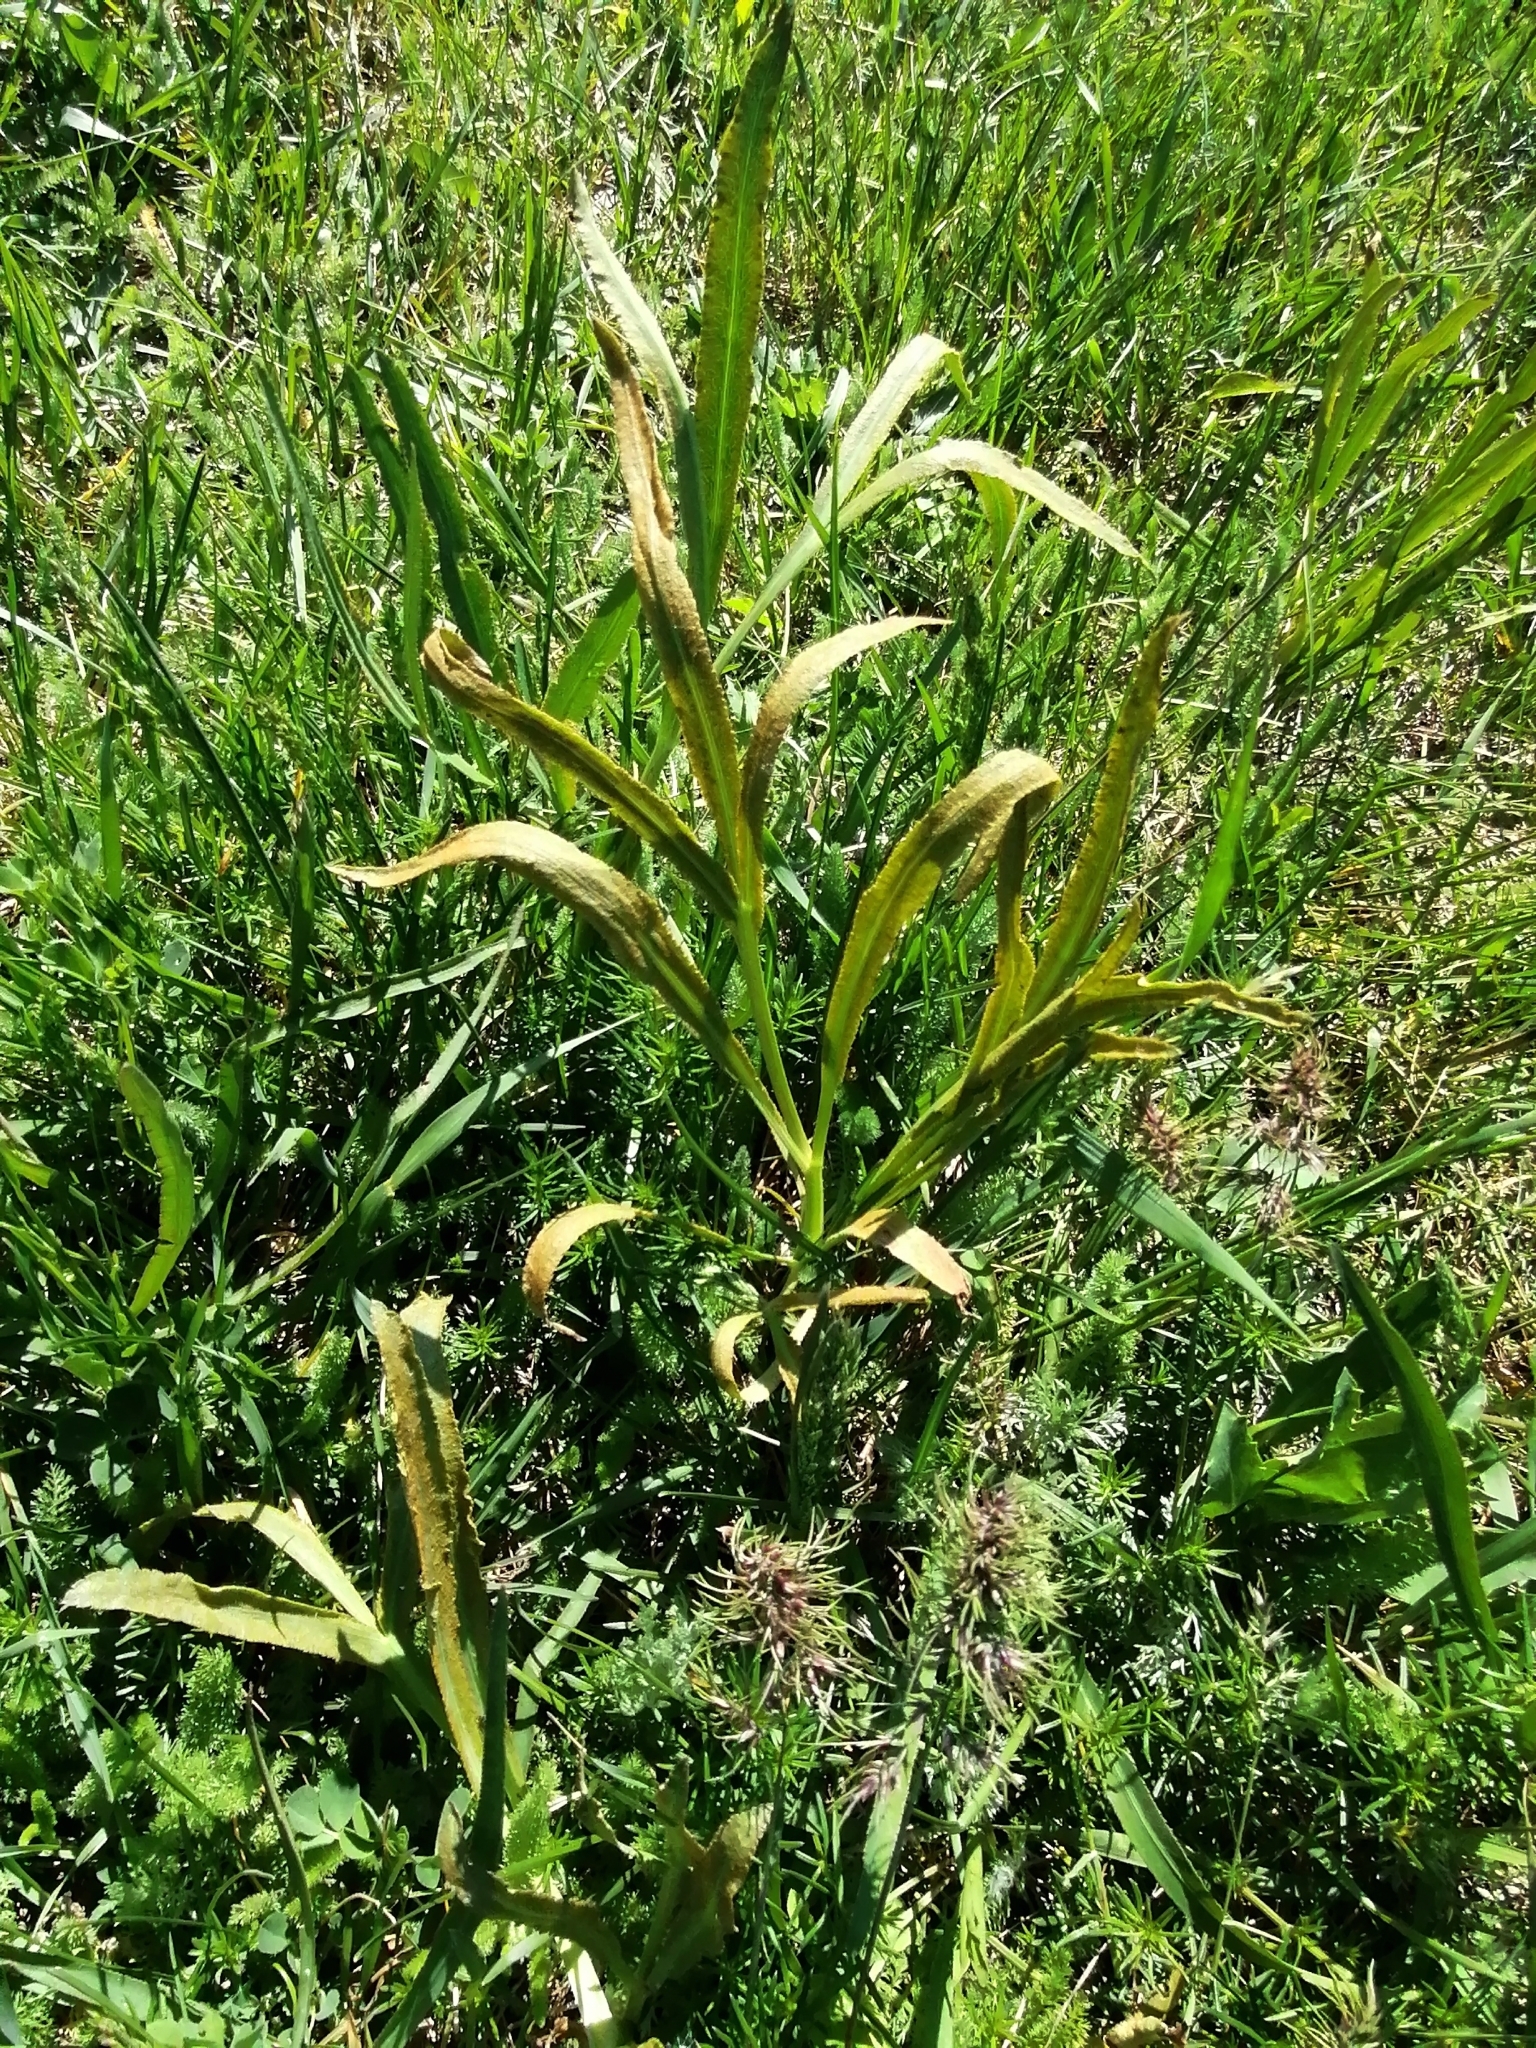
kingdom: Plantae
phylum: Tracheophyta
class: Magnoliopsida
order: Apiales
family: Apiaceae
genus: Falcaria
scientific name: Falcaria vulgaris
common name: Longleaf
